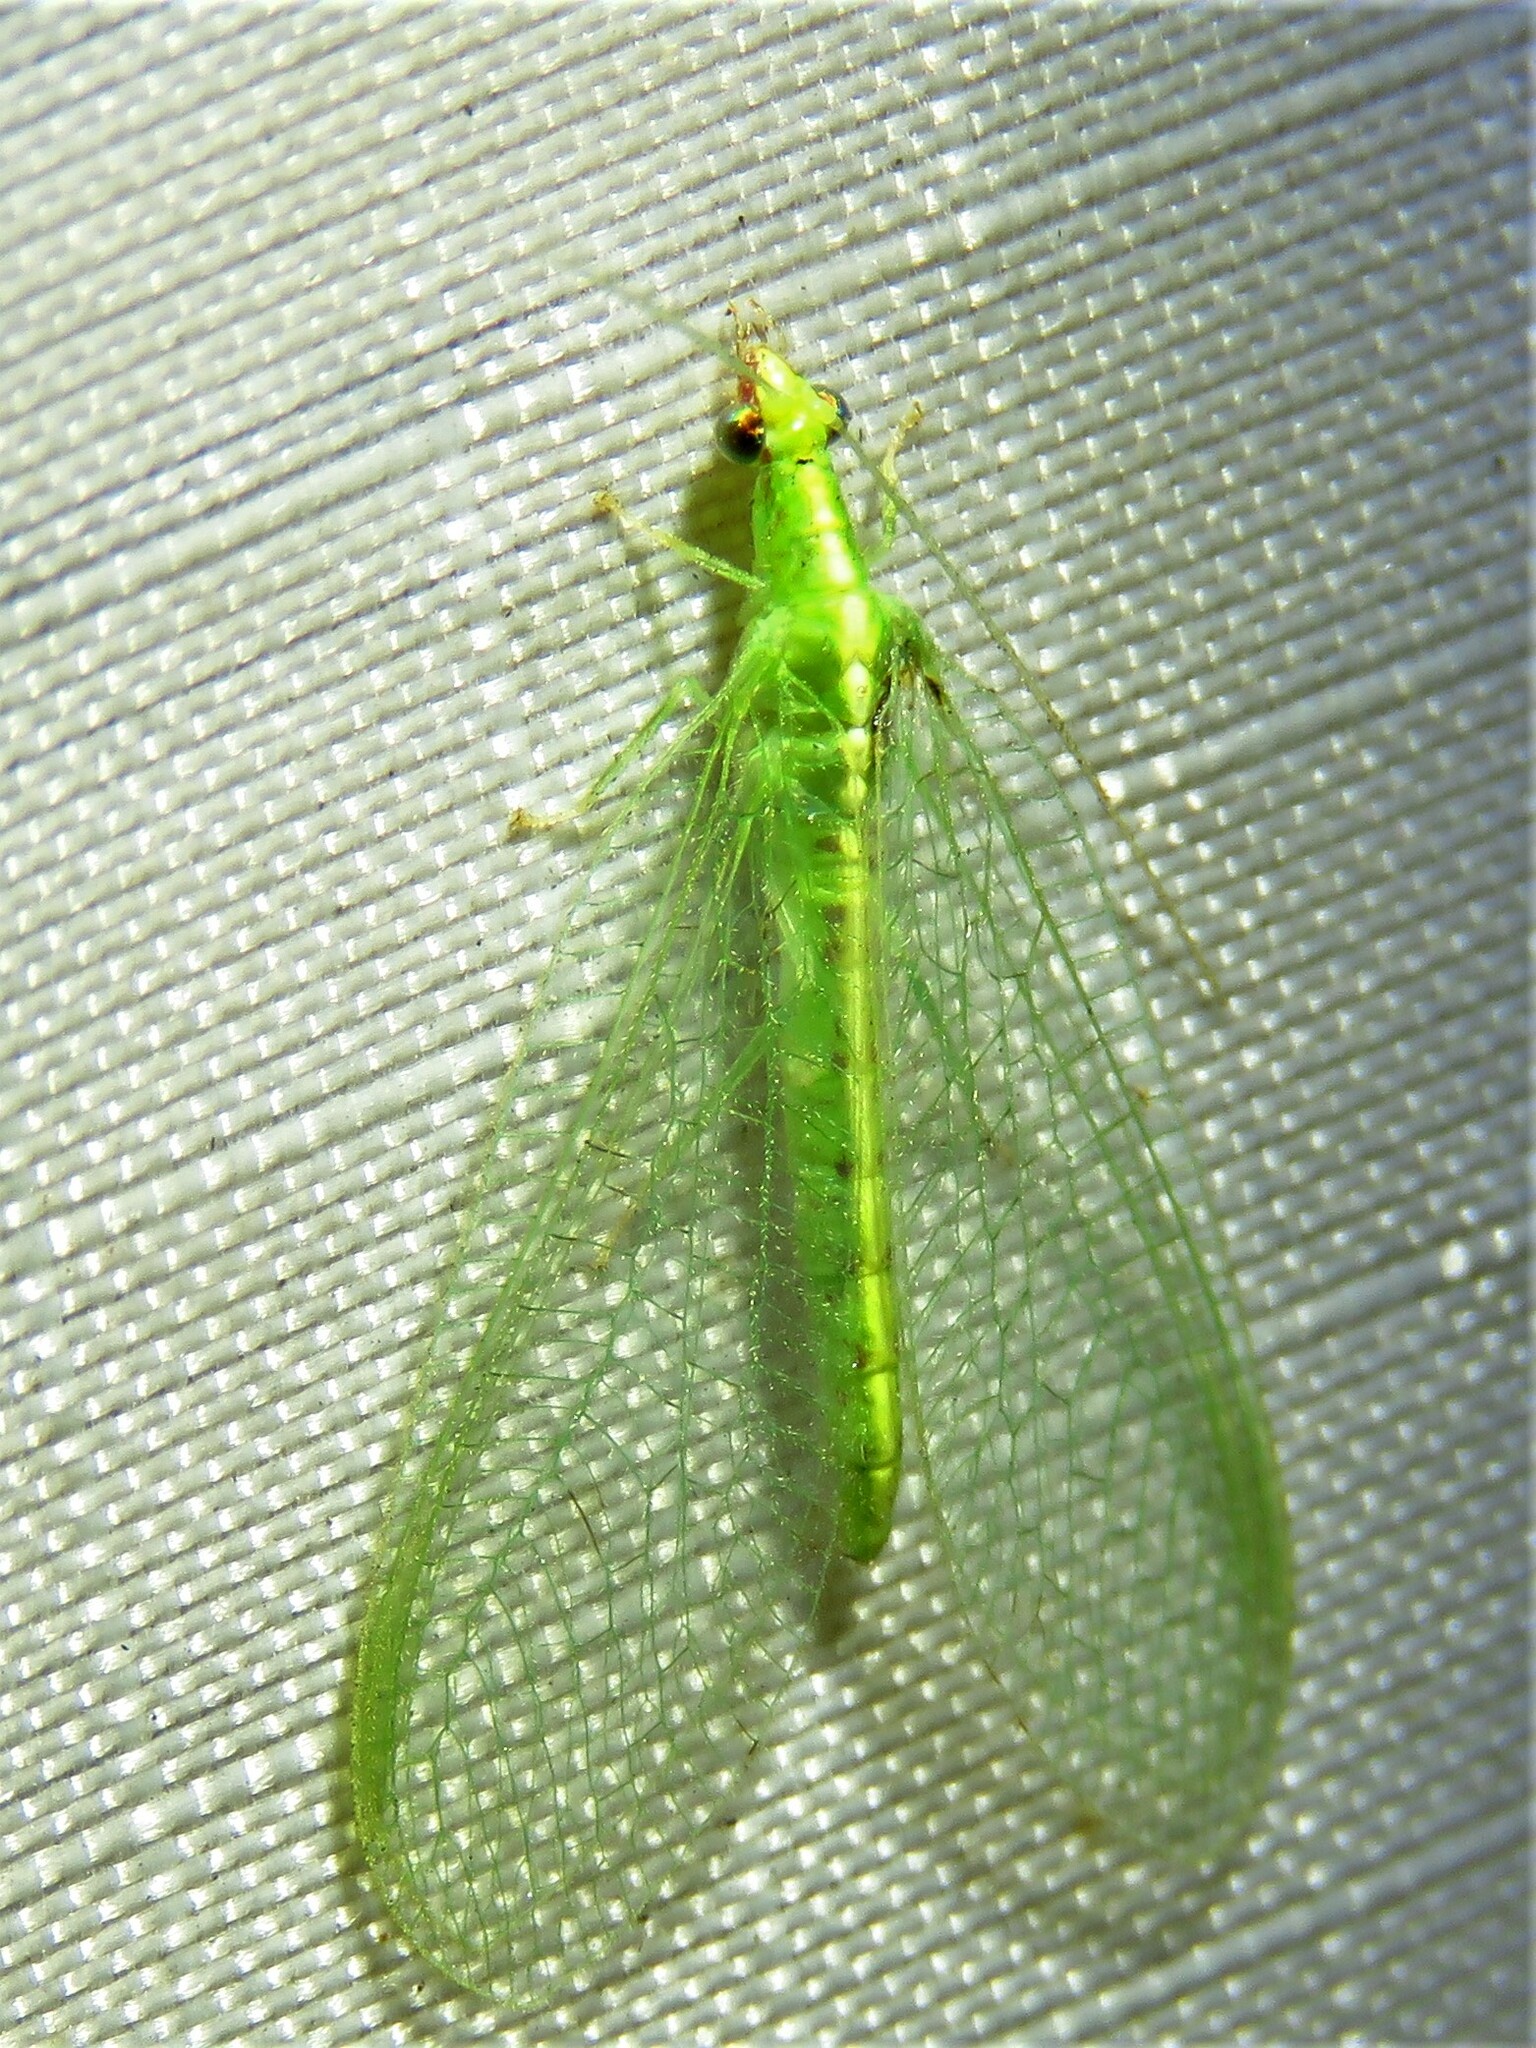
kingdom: Animalia
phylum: Arthropoda
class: Insecta
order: Neuroptera
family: Chrysopidae
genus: Chrysoperla
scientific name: Chrysoperla rufilabris
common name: Red-lipped green lacewing
